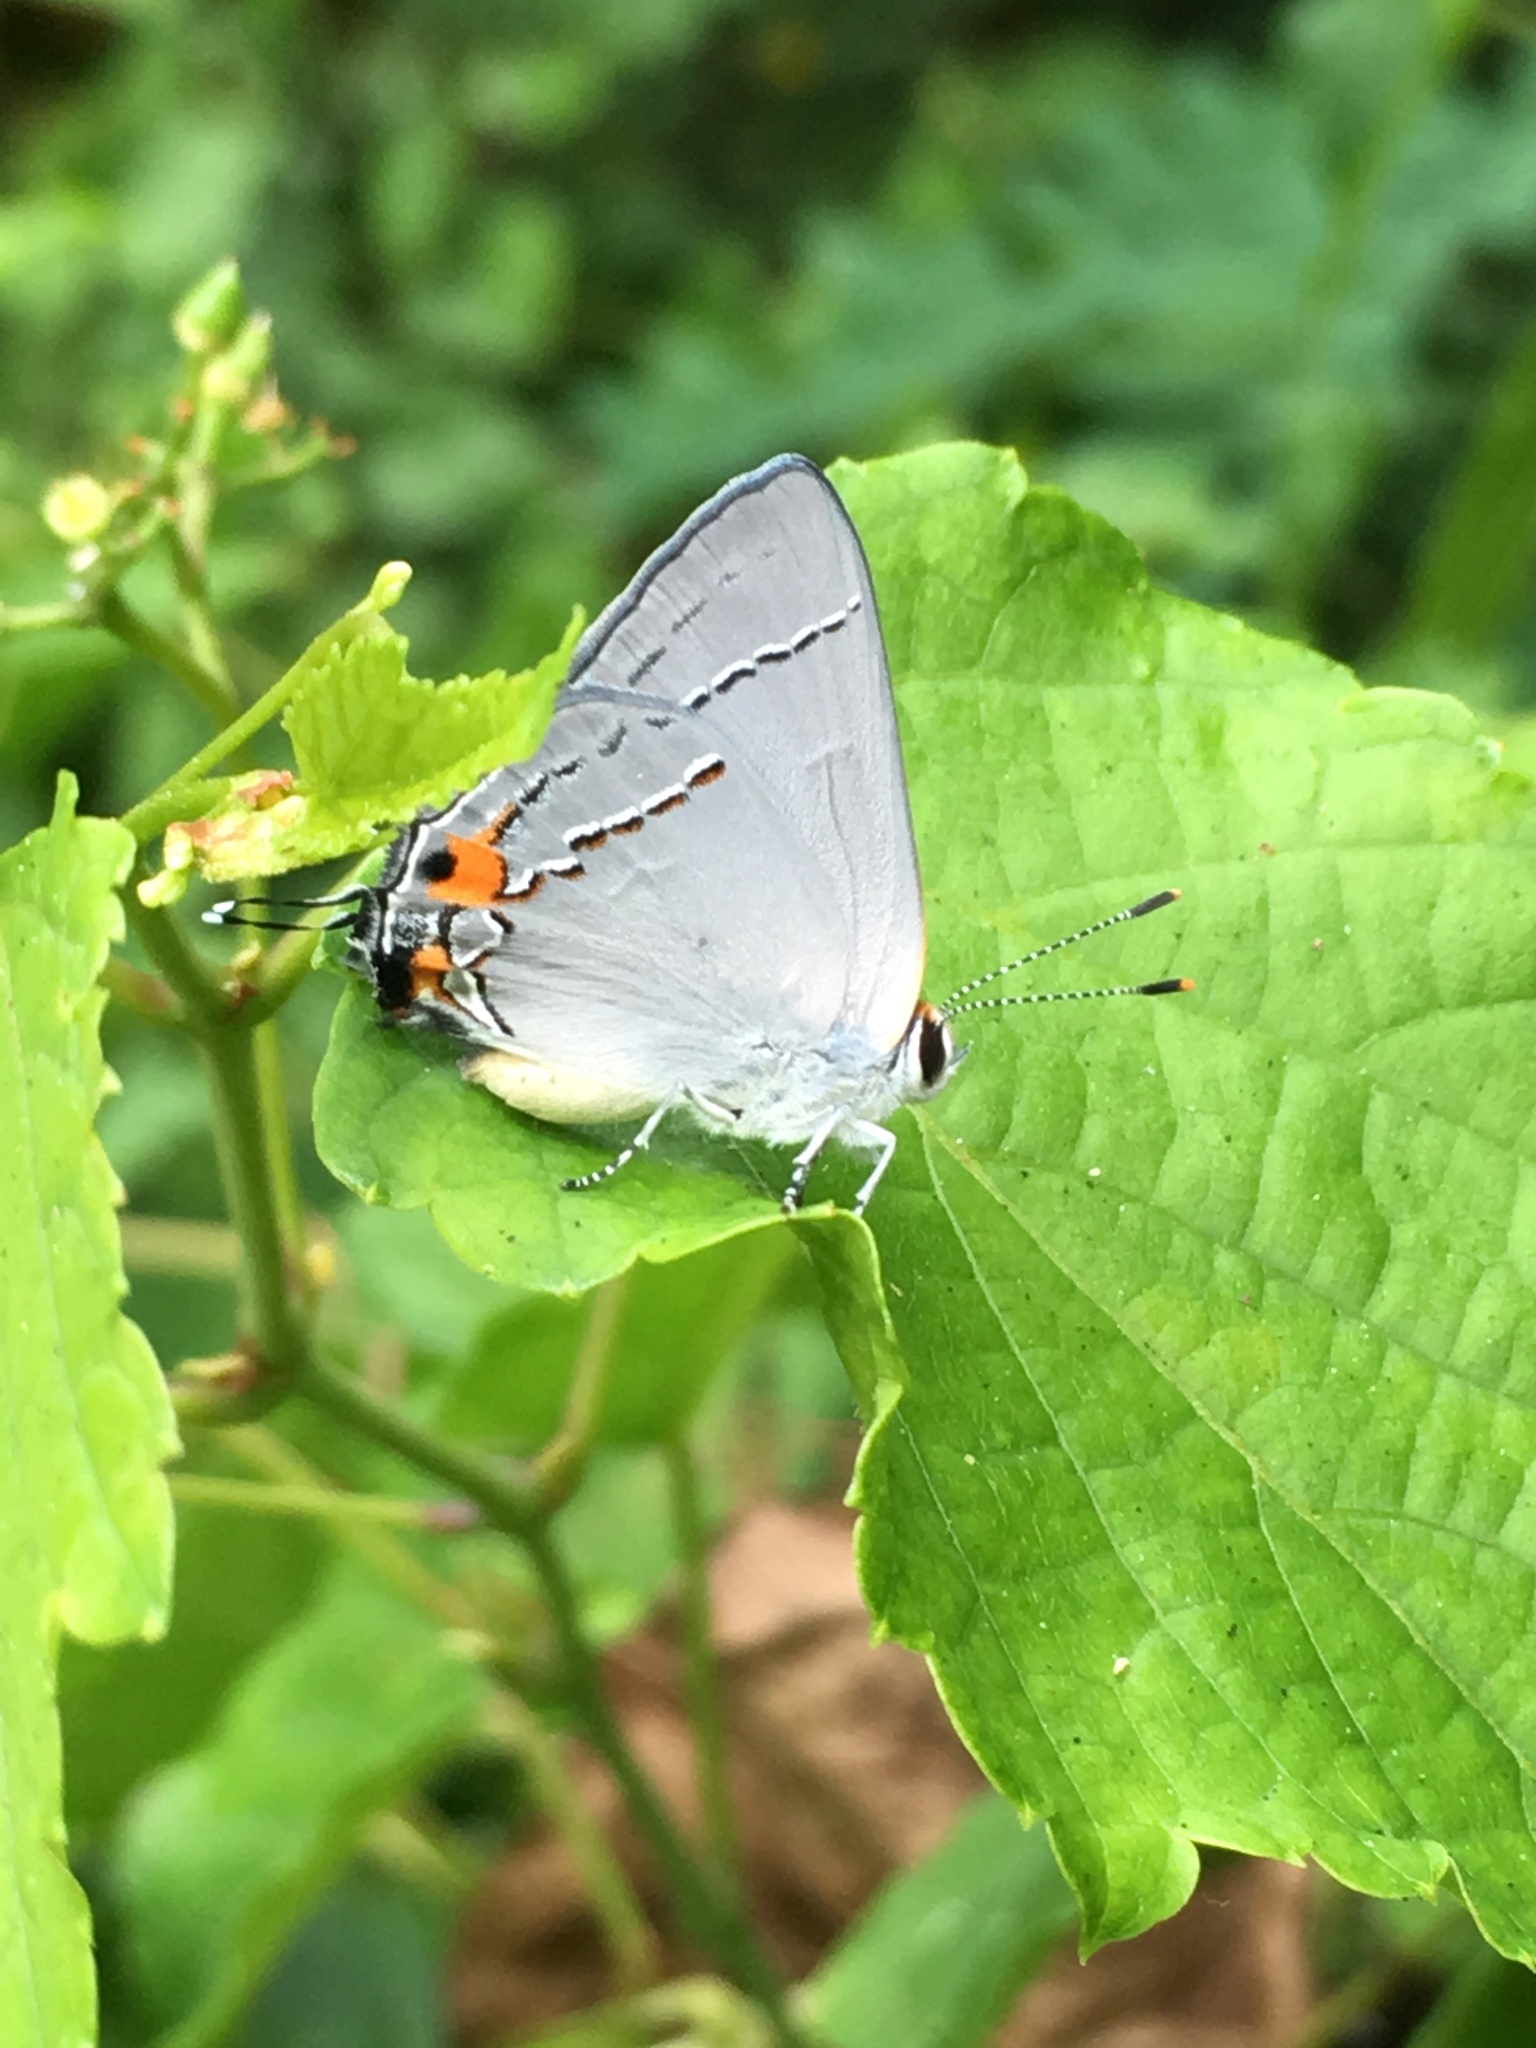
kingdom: Animalia
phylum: Arthropoda
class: Insecta
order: Lepidoptera
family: Lycaenidae
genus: Strymon
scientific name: Strymon melinus
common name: Gray hairstreak
